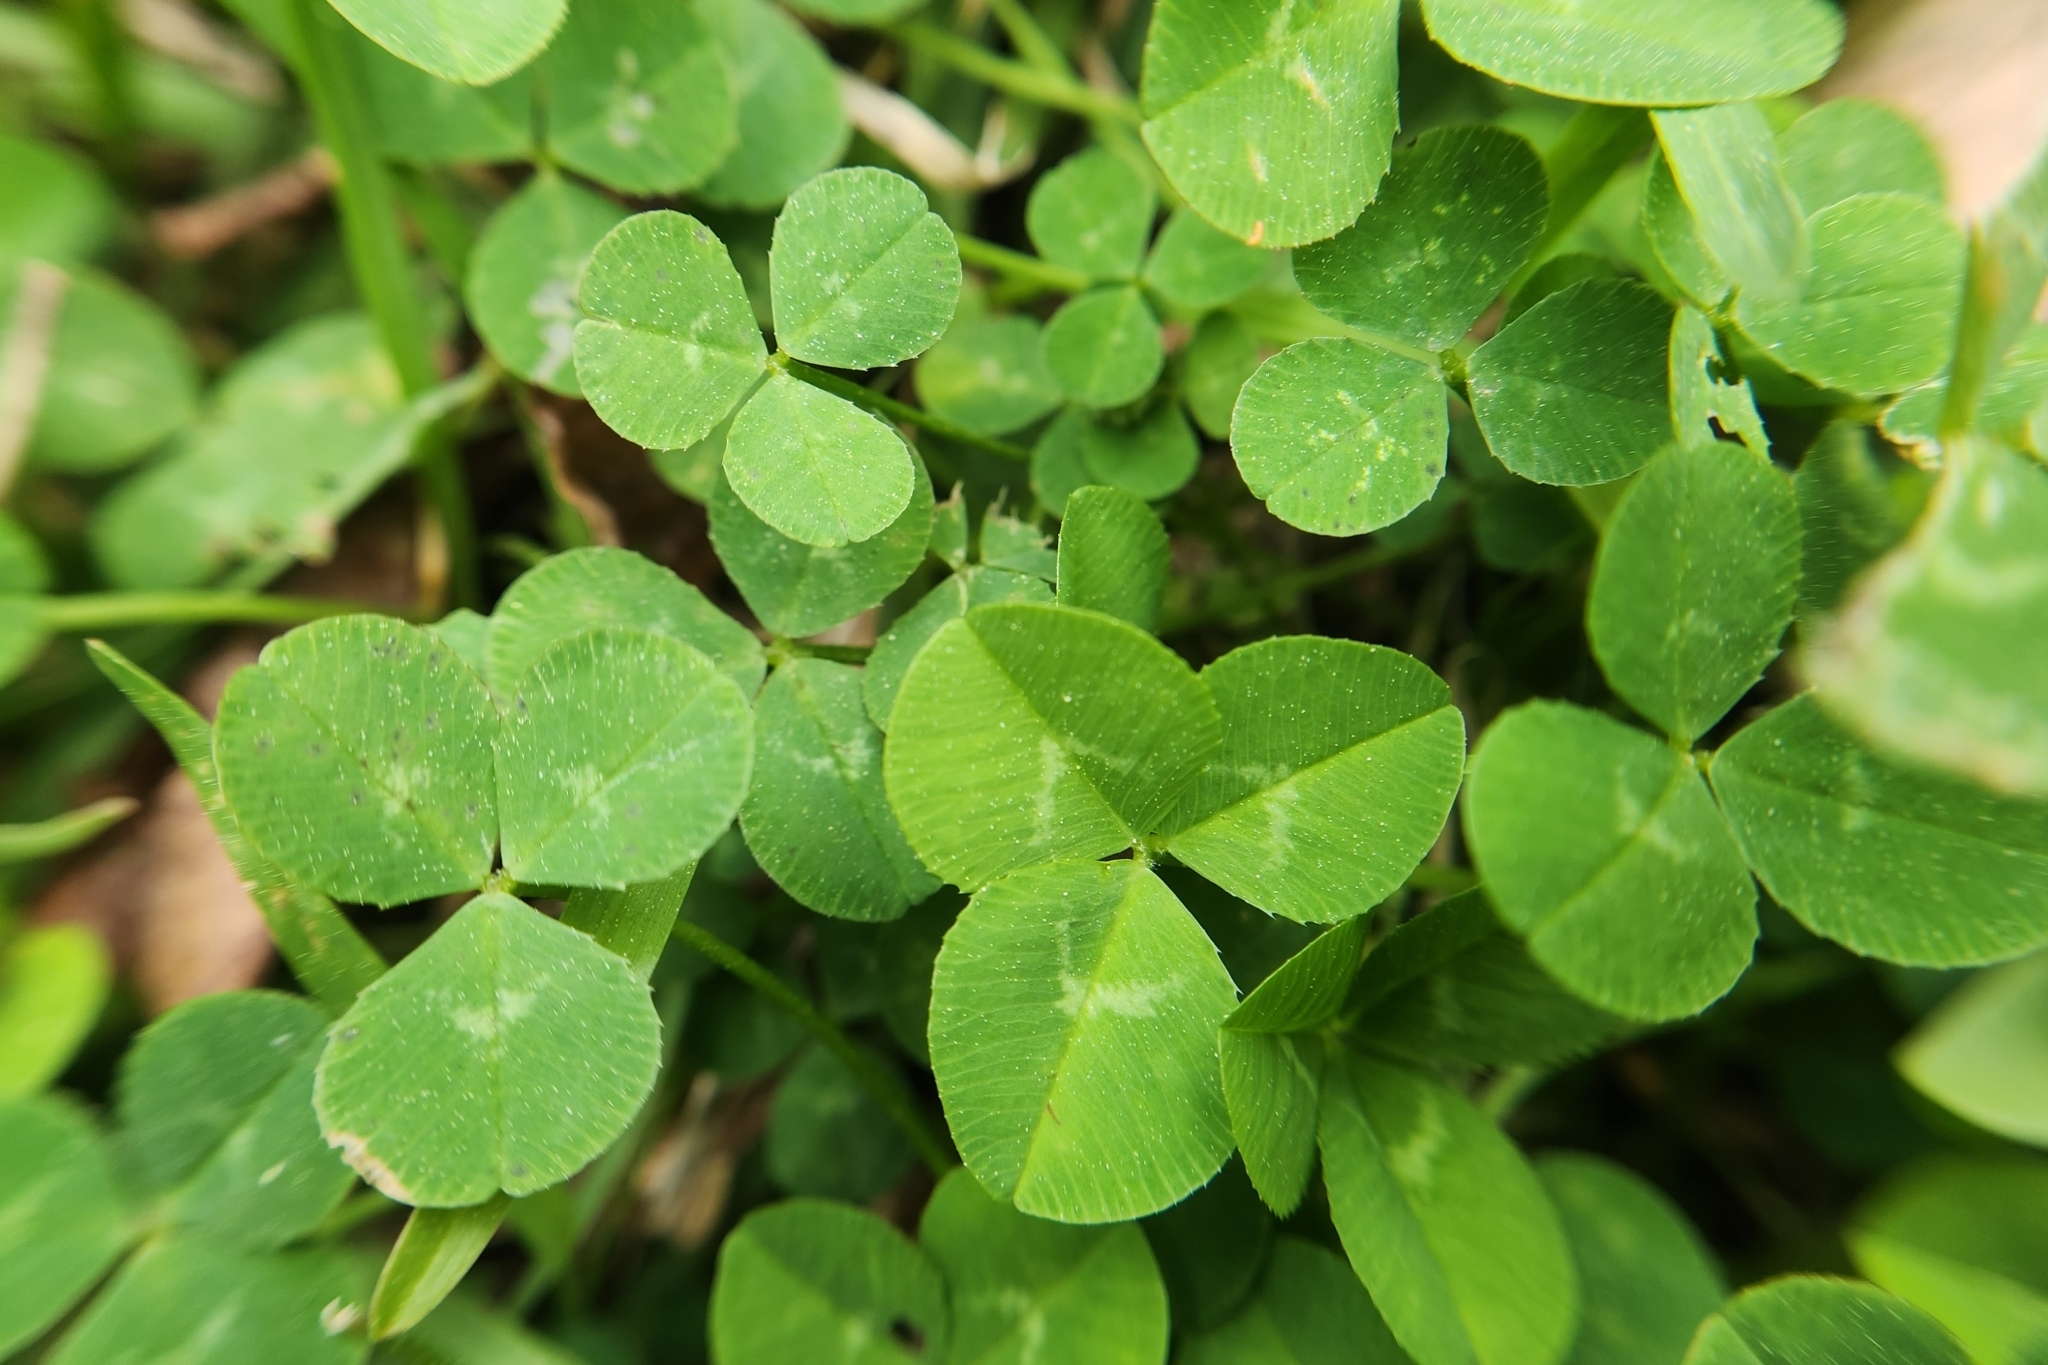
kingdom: Plantae
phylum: Tracheophyta
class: Magnoliopsida
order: Fabales
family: Fabaceae
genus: Trifolium
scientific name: Trifolium repens
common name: White clover
